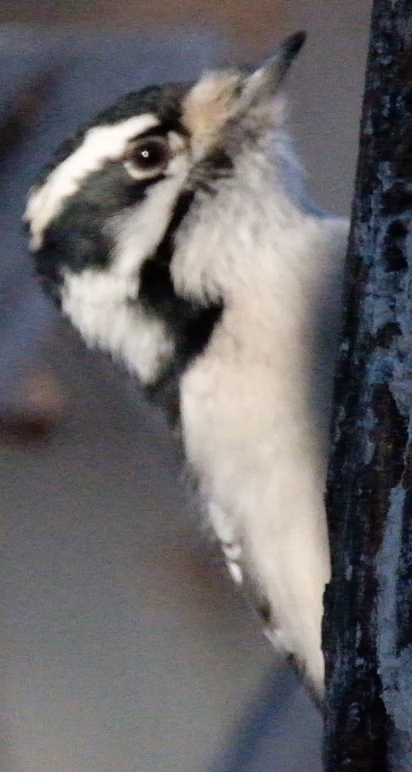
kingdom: Animalia
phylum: Chordata
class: Aves
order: Piciformes
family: Picidae
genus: Dryobates
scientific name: Dryobates pubescens
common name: Downy woodpecker
